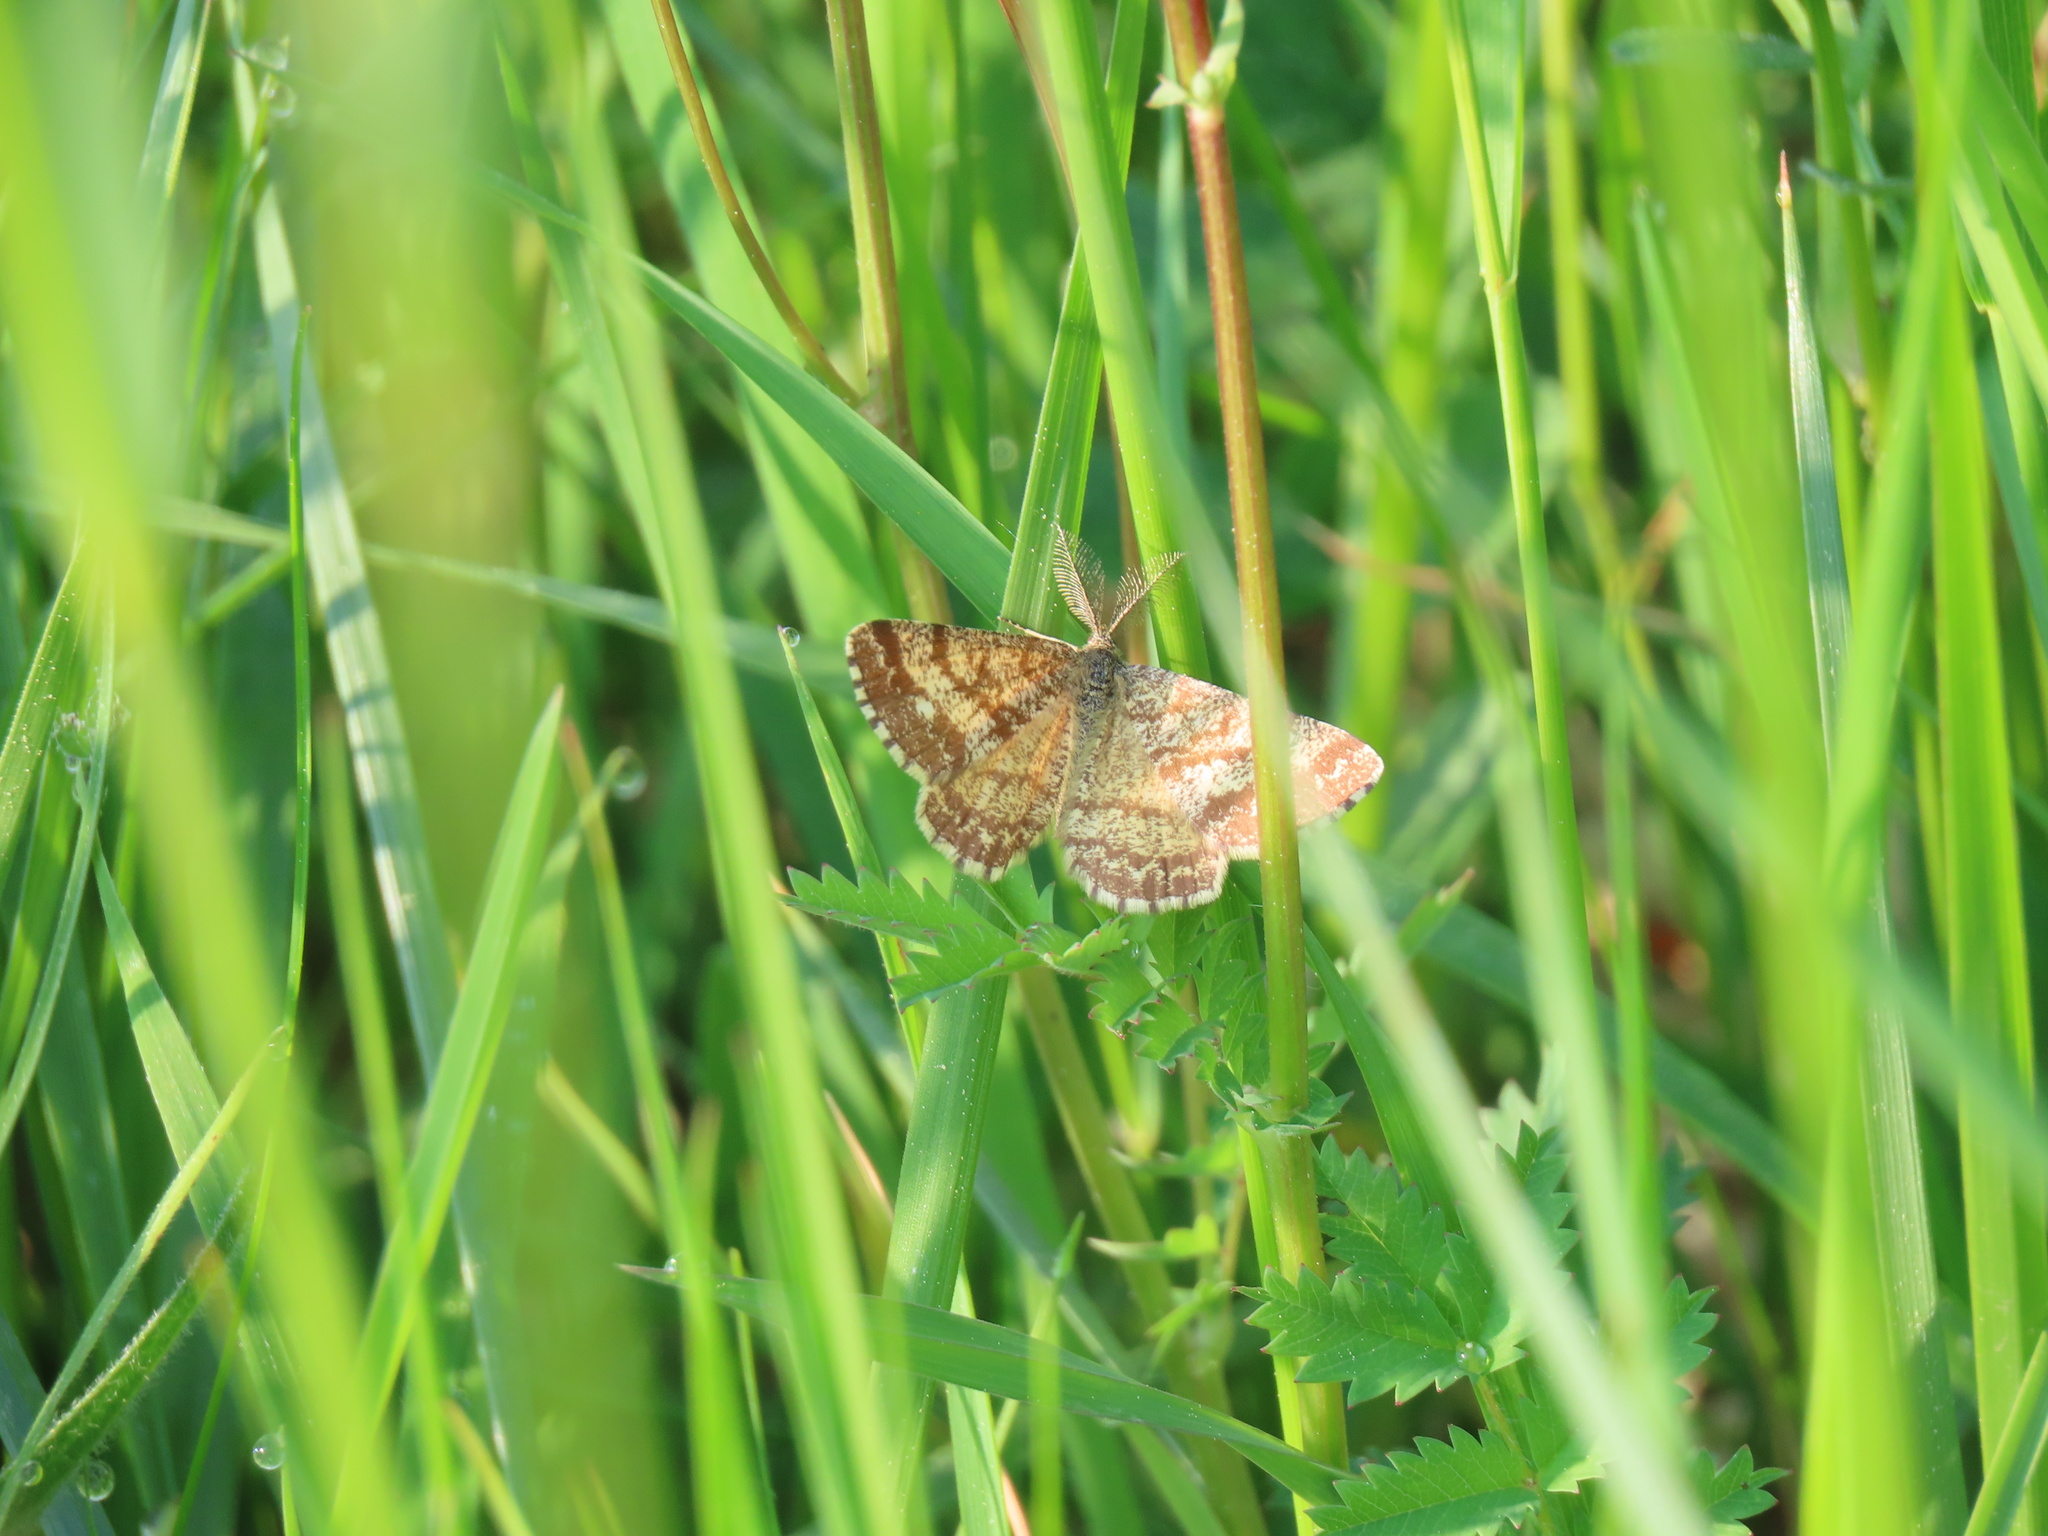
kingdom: Animalia
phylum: Arthropoda
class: Insecta
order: Lepidoptera
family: Geometridae
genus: Ematurga
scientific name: Ematurga atomaria
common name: Common heath
